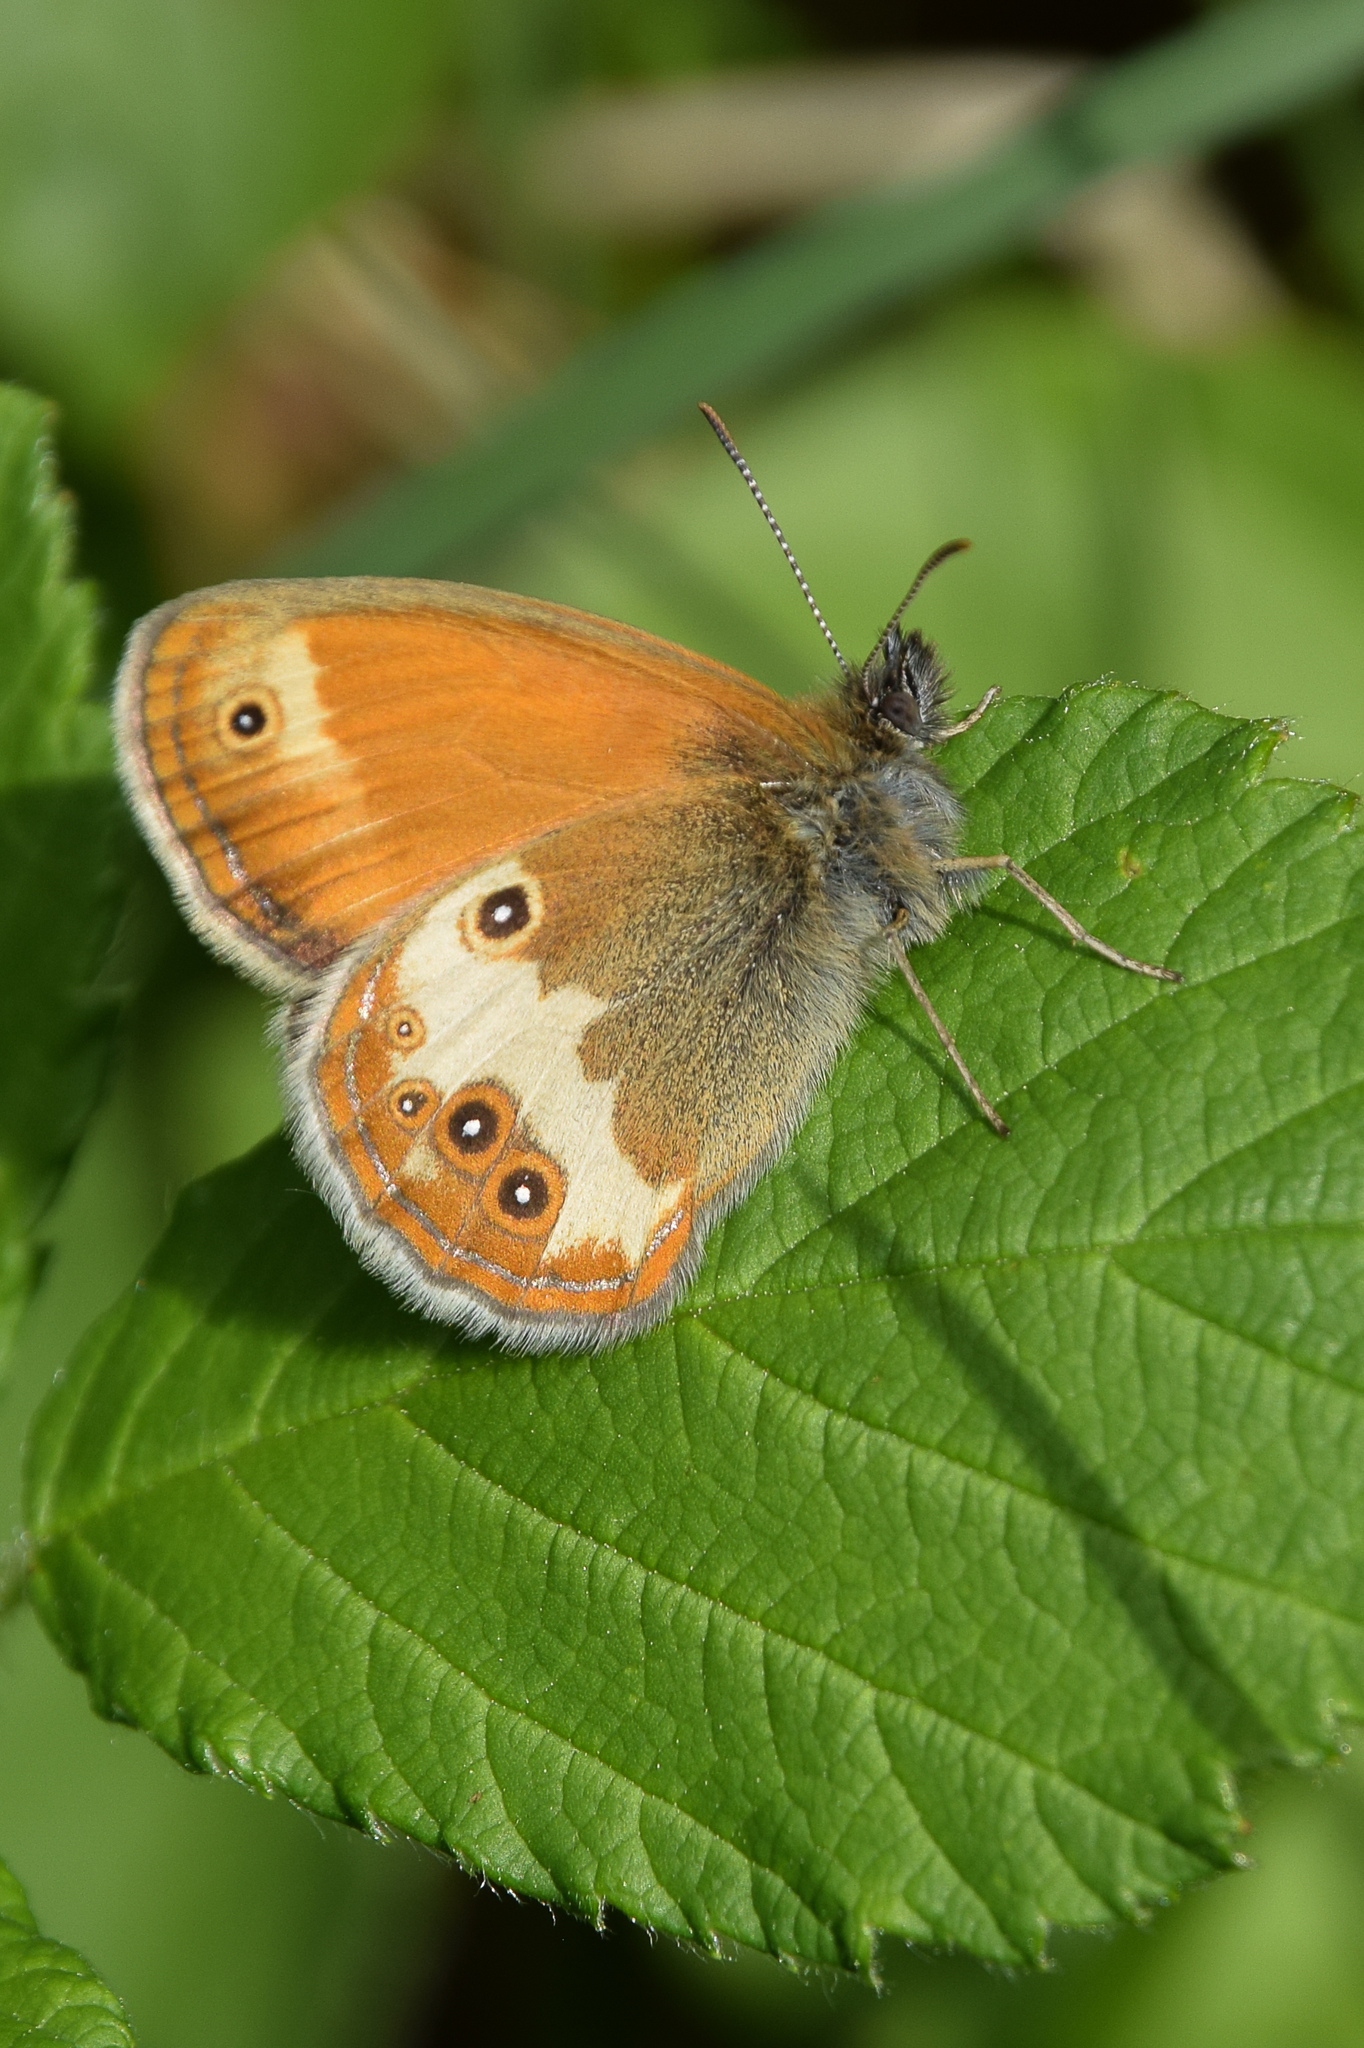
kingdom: Animalia
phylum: Arthropoda
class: Insecta
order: Lepidoptera
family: Nymphalidae
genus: Coenonympha
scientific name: Coenonympha arcania
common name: Pearly heath
